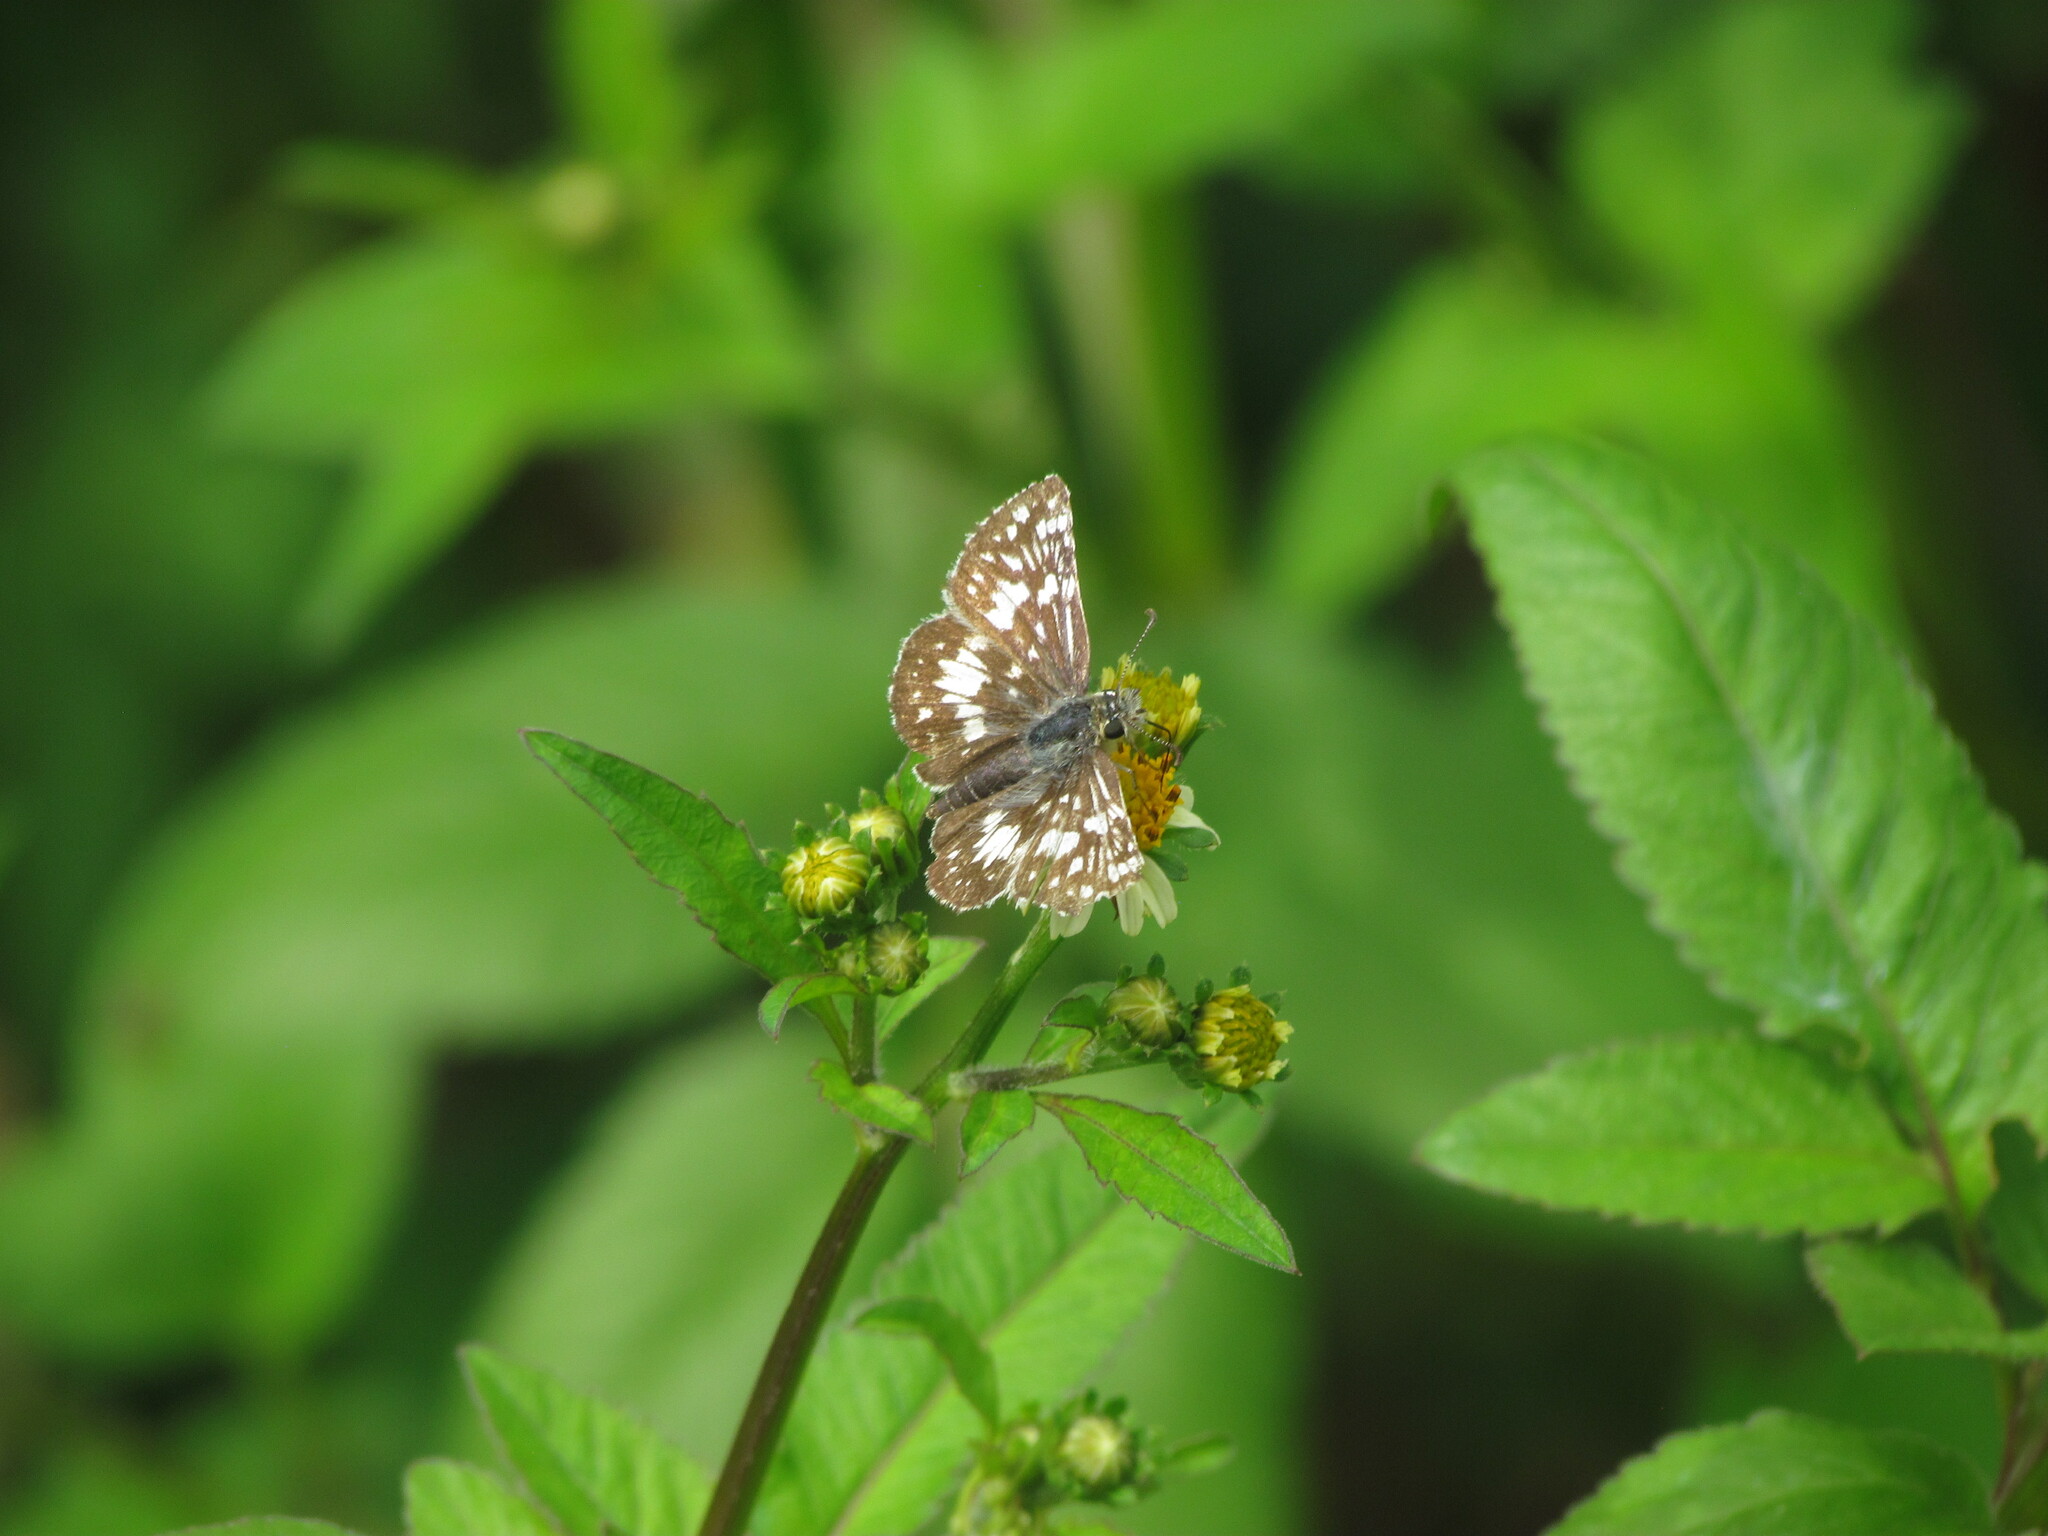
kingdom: Animalia
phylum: Arthropoda
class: Insecta
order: Lepidoptera
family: Hesperiidae
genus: Burnsius
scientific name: Burnsius orcynoides
